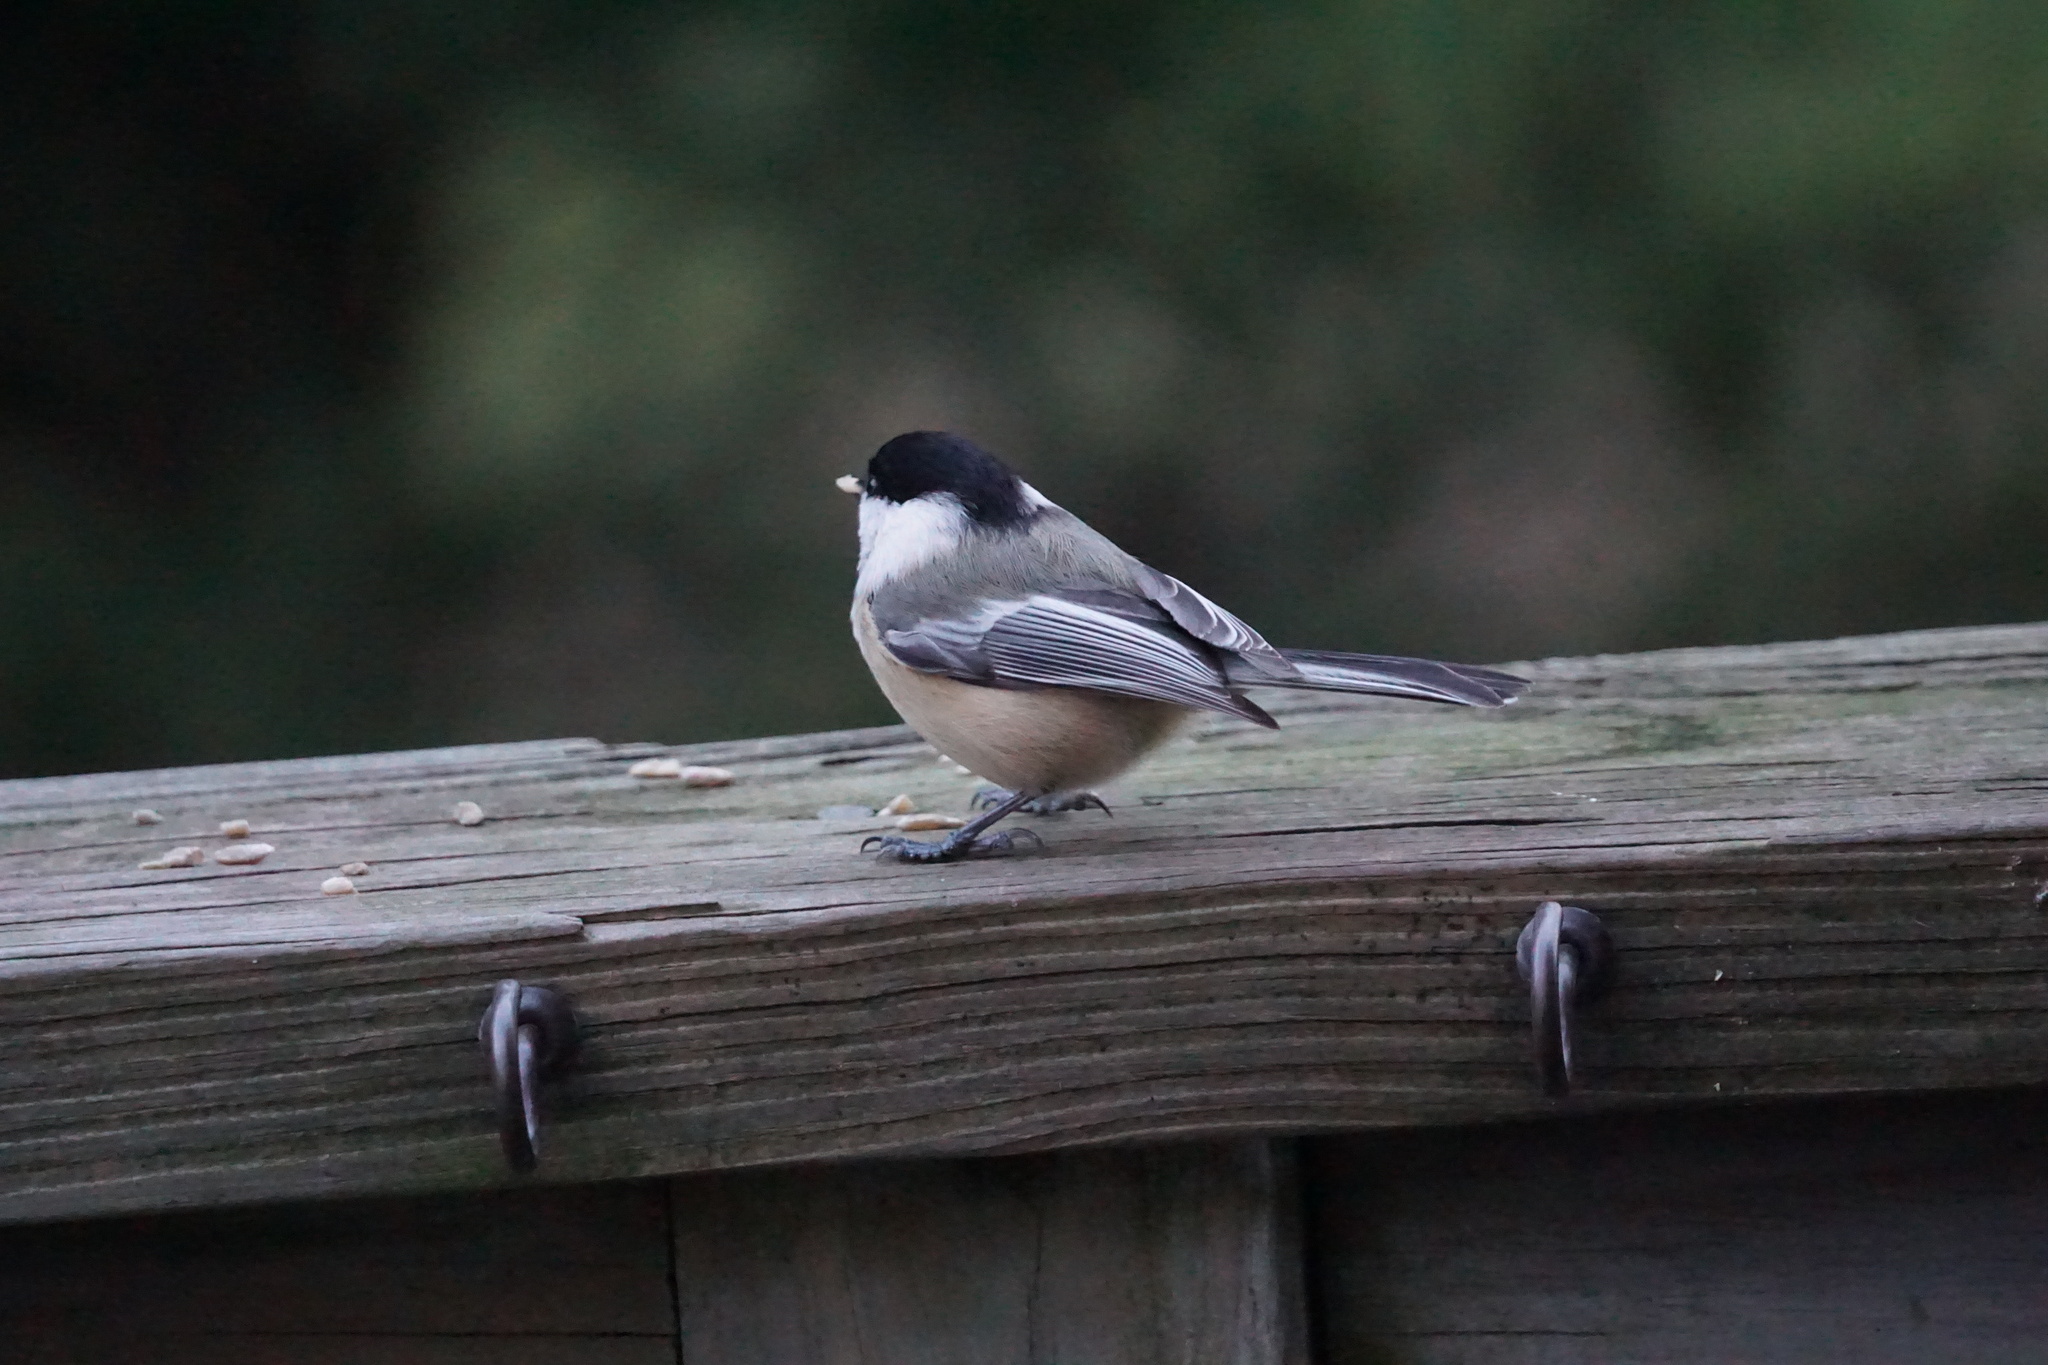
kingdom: Animalia
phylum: Chordata
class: Aves
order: Passeriformes
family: Paridae
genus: Poecile
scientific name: Poecile atricapillus
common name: Black-capped chickadee
